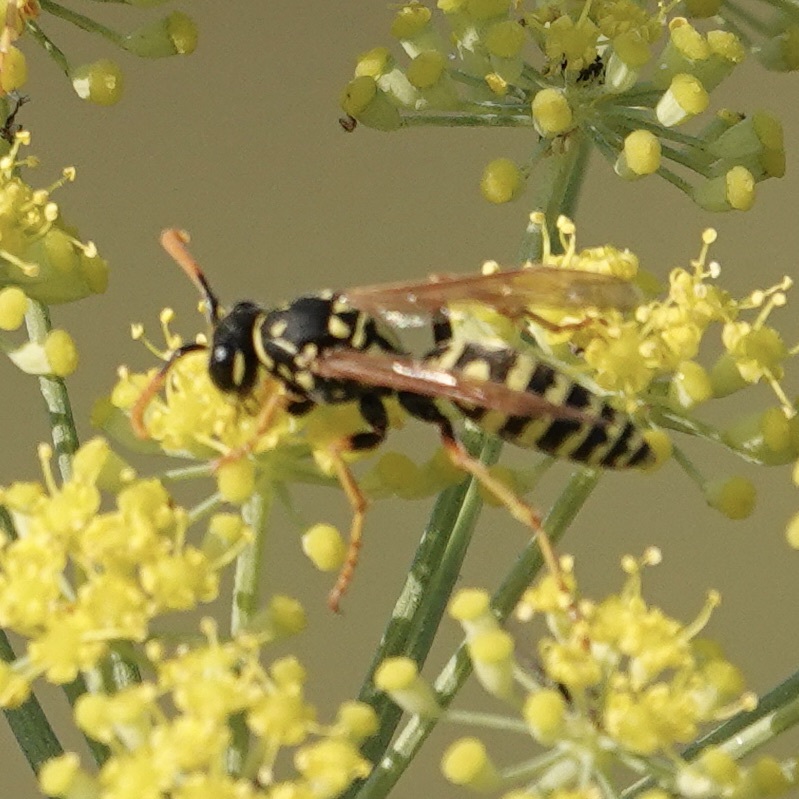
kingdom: Animalia
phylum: Arthropoda
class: Insecta
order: Hymenoptera
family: Eumenidae
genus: Polistes
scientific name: Polistes dominula
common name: Paper wasp
